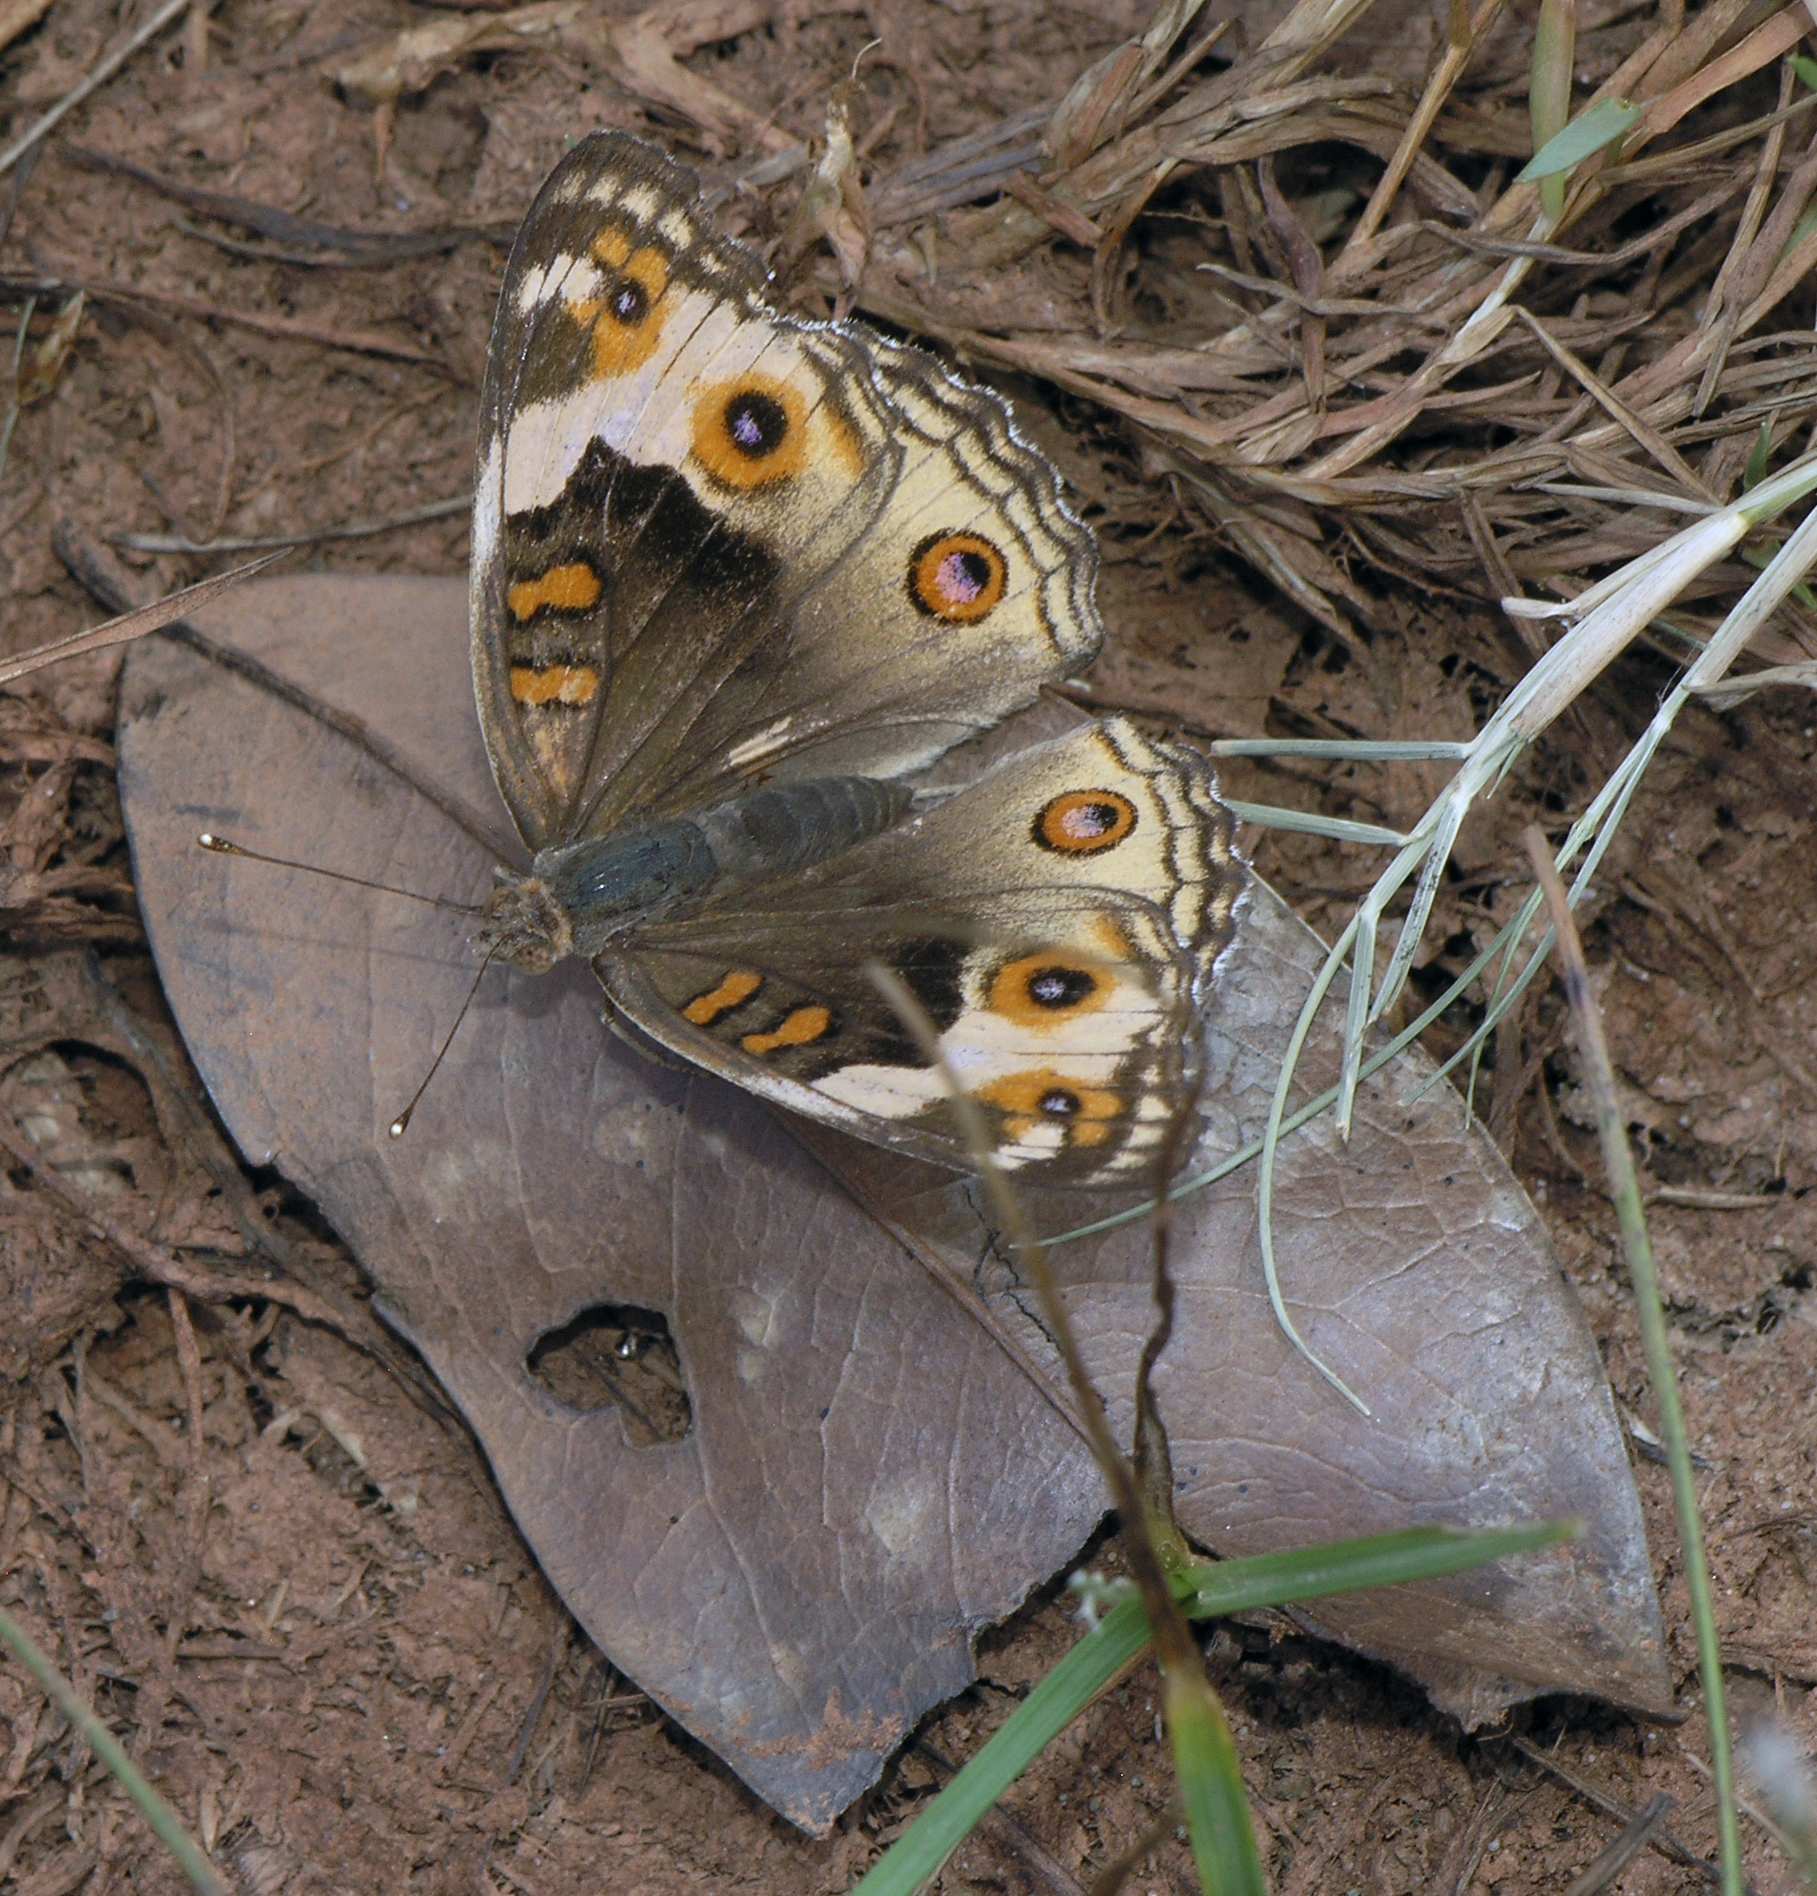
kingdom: Animalia
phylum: Arthropoda
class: Insecta
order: Lepidoptera
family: Nymphalidae
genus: Junonia
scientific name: Junonia orithya
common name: Blue pansy
